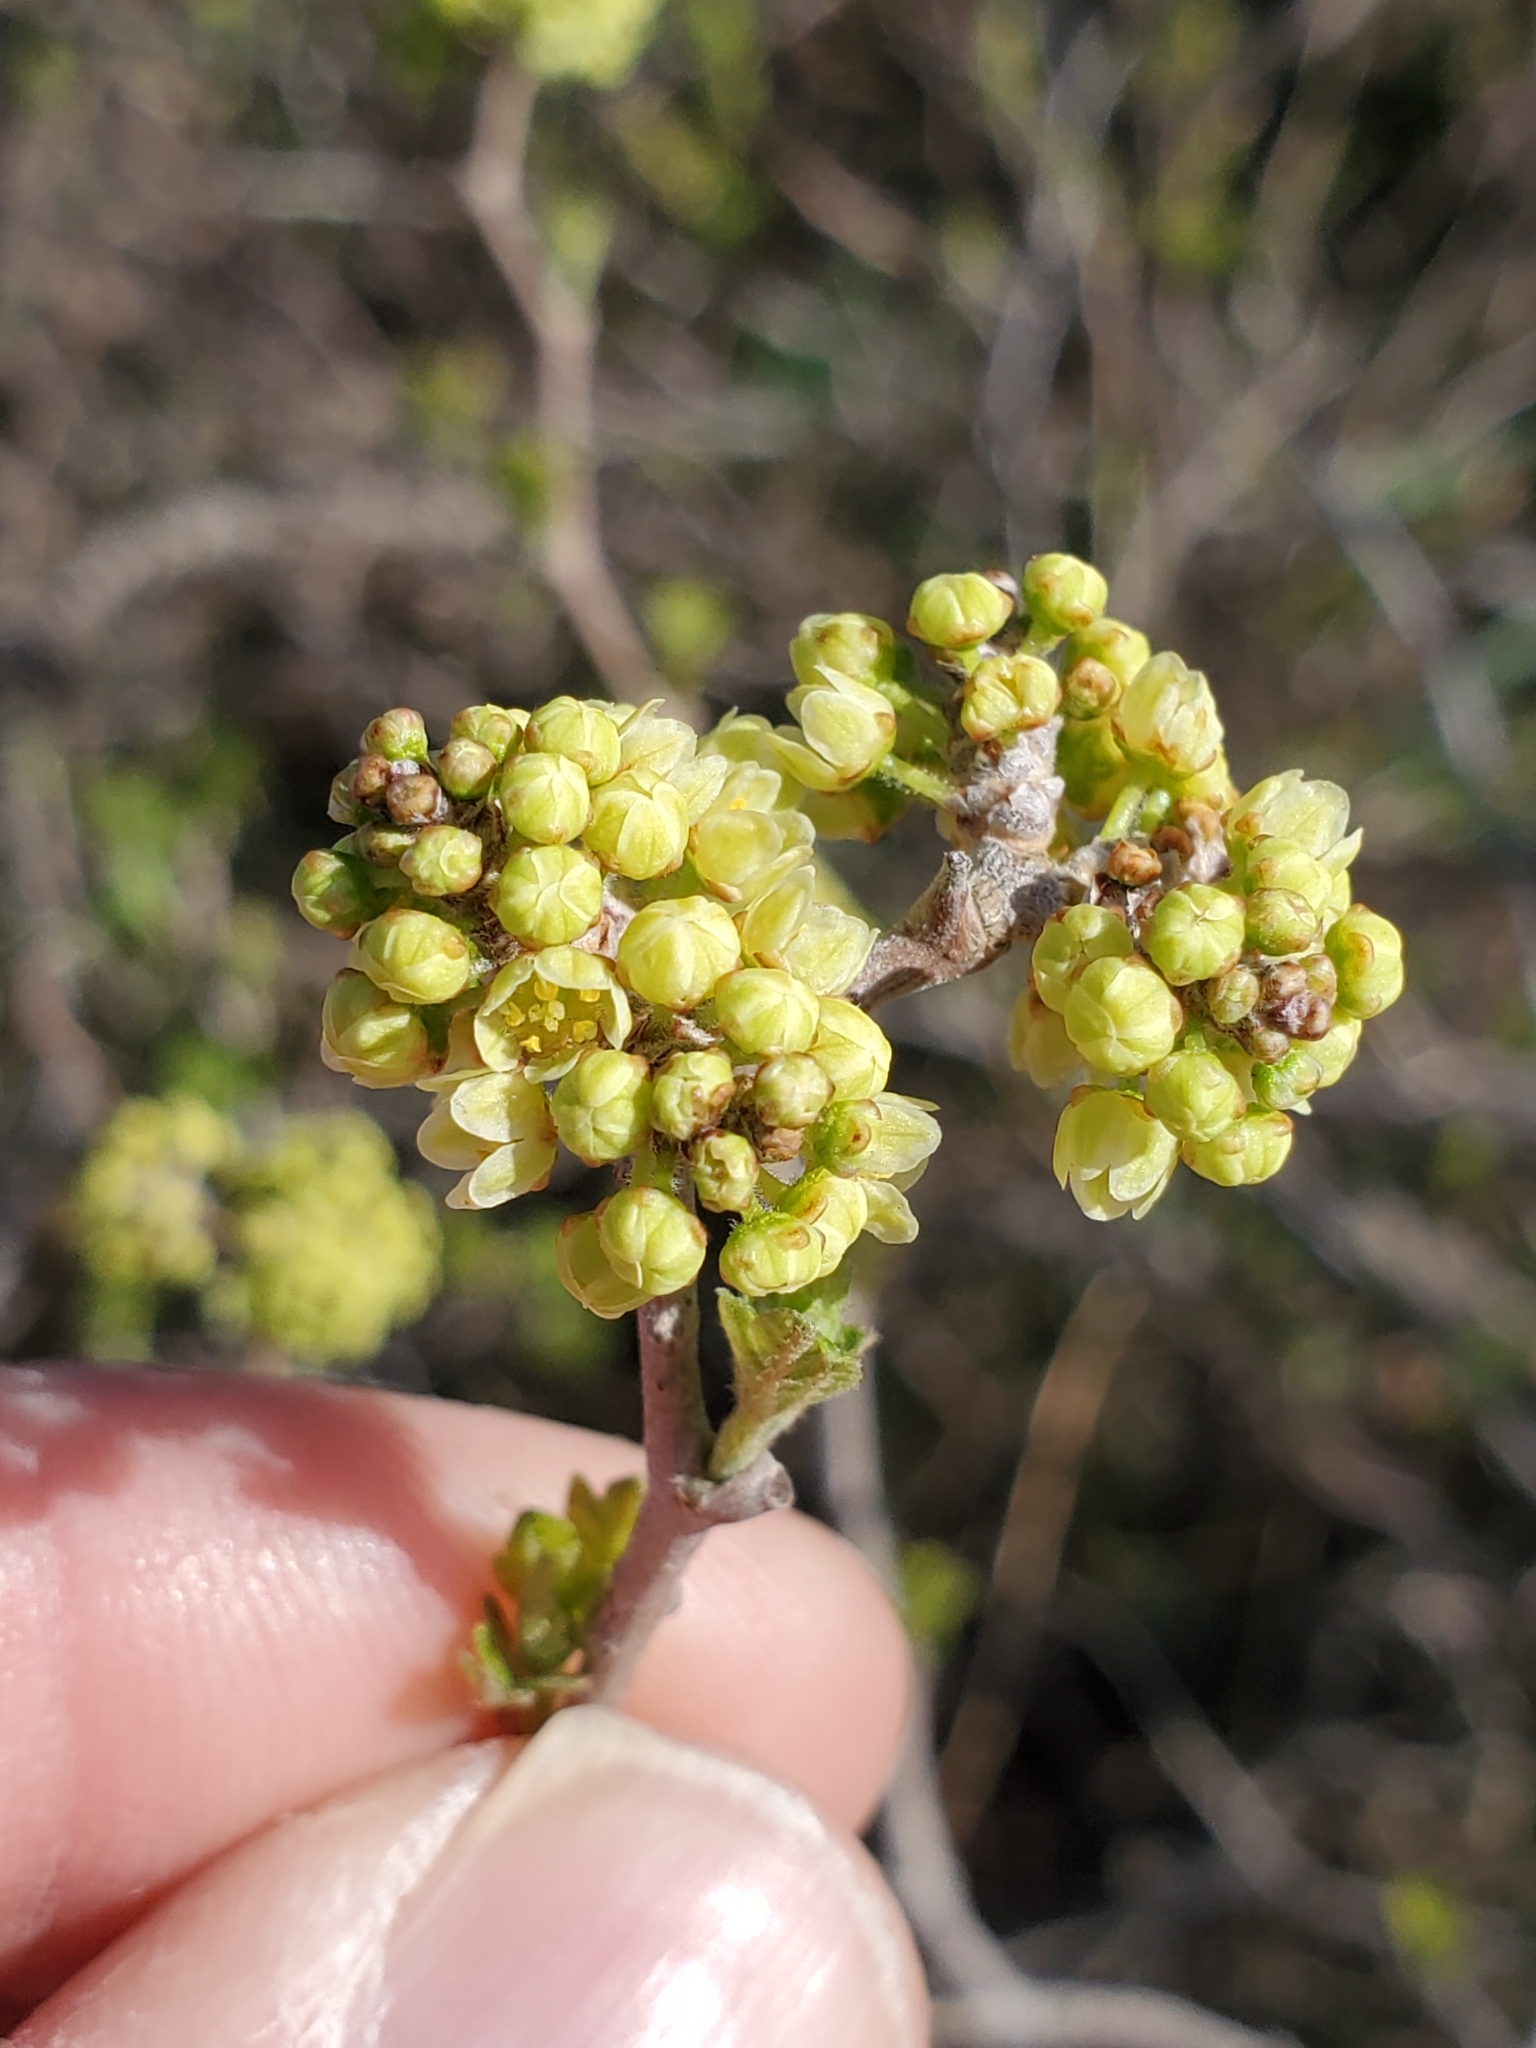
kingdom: Plantae
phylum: Tracheophyta
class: Magnoliopsida
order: Sapindales
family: Anacardiaceae
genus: Rhus
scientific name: Rhus aromatica
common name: Aromatic sumac
